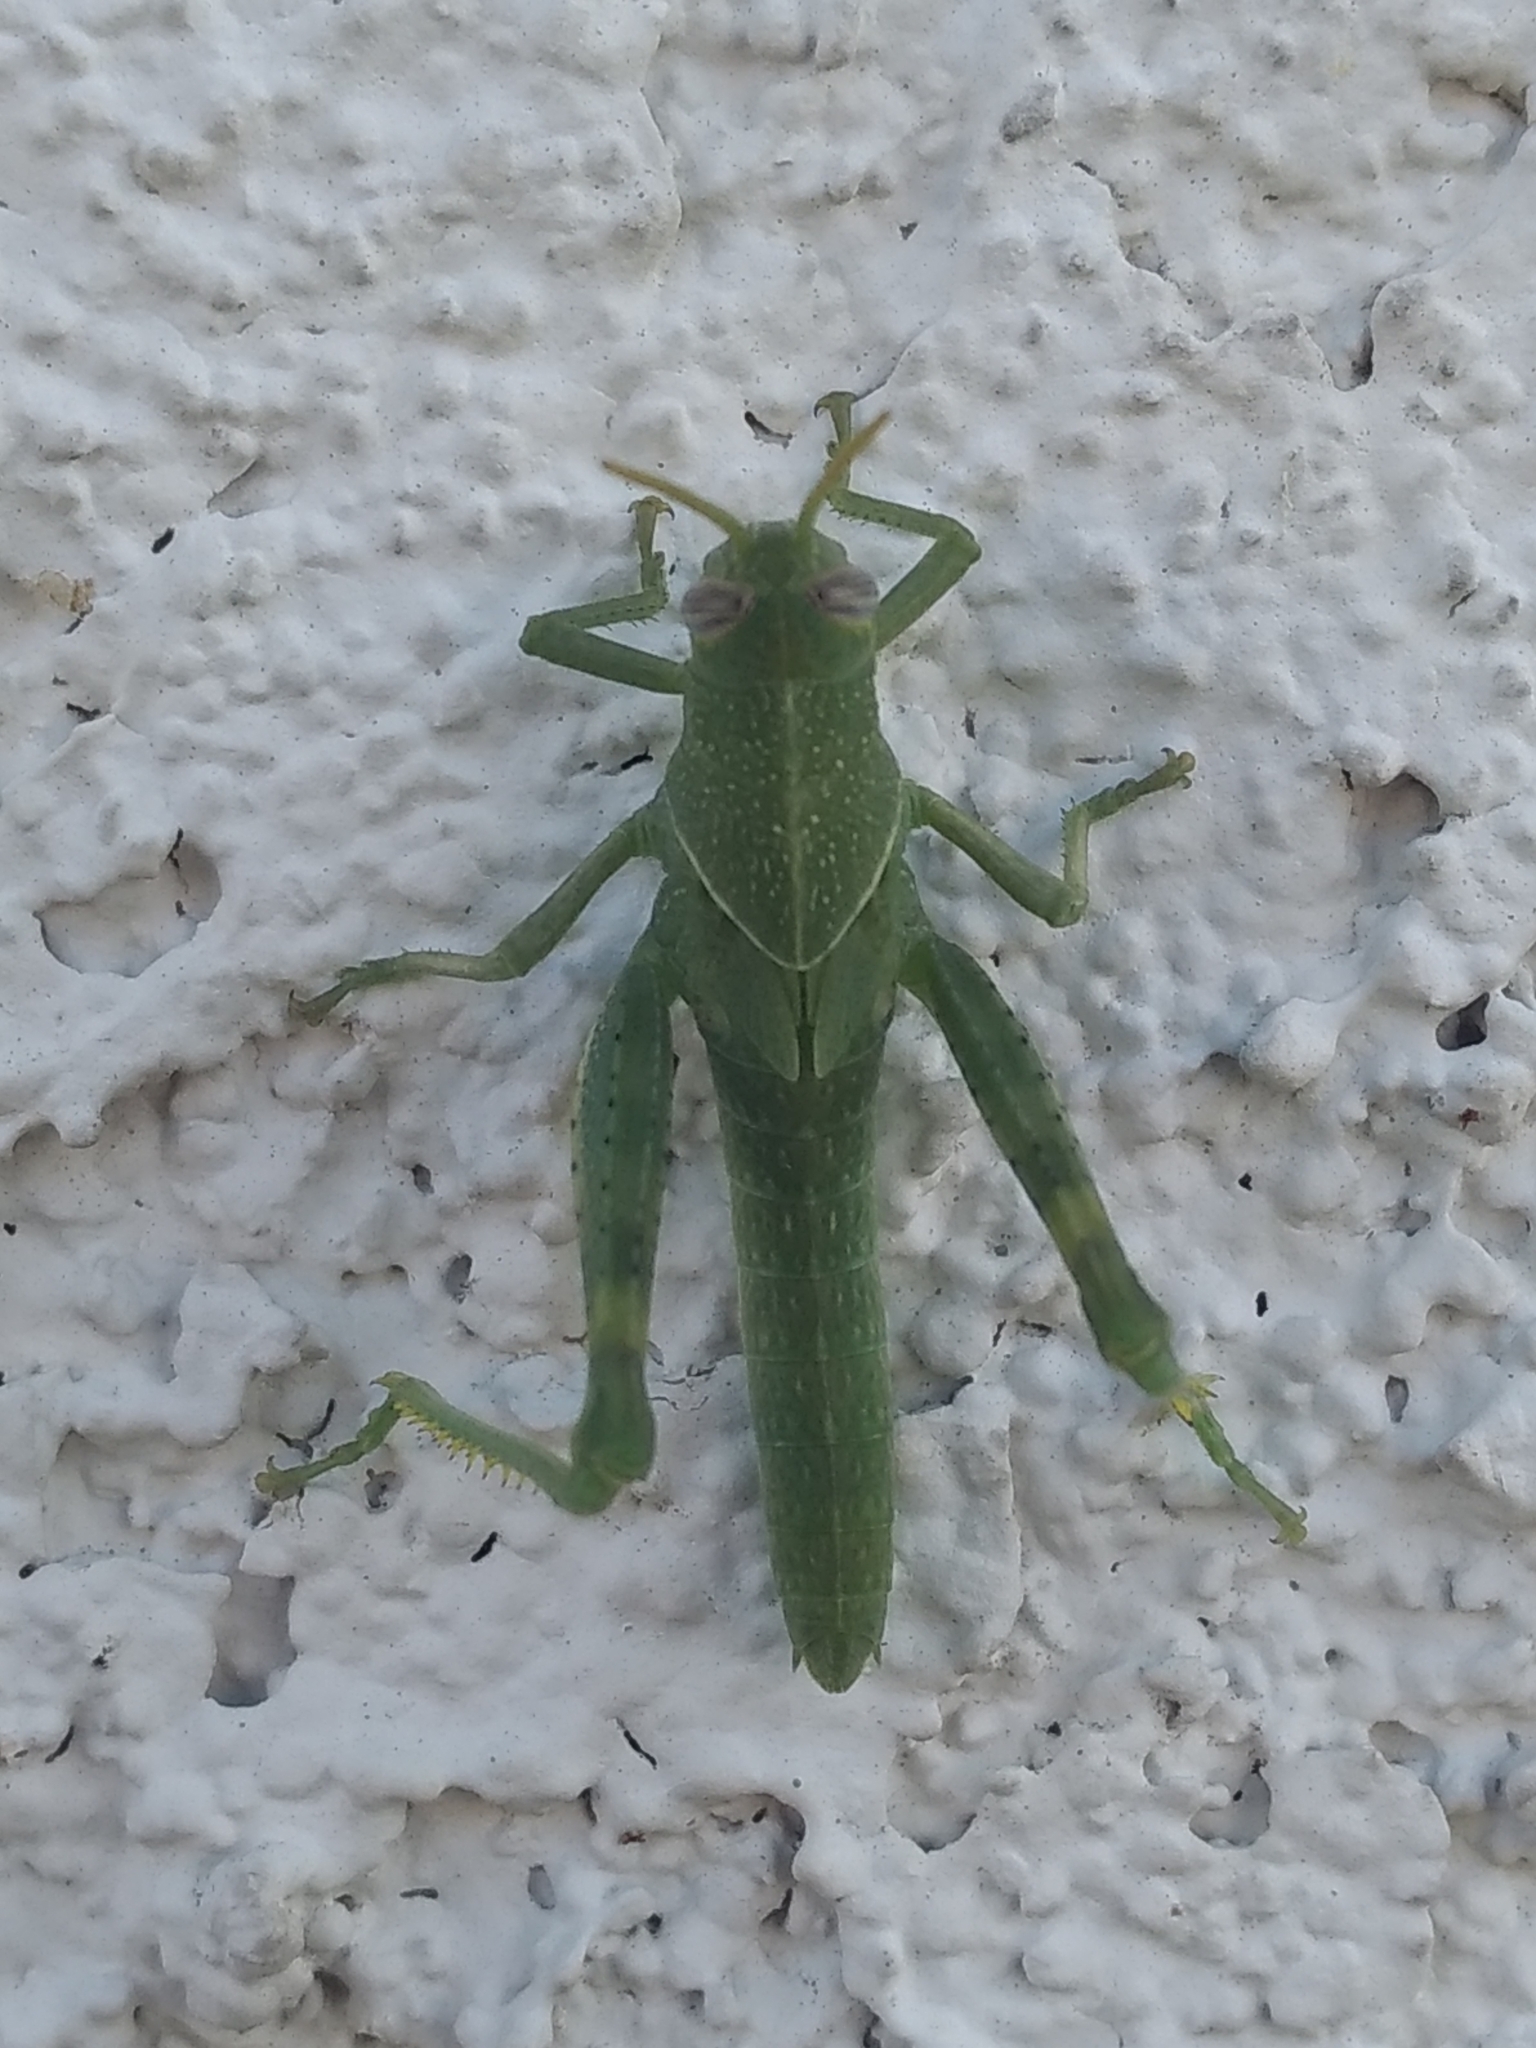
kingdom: Animalia
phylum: Arthropoda
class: Insecta
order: Orthoptera
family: Acrididae
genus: Schistocerca
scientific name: Schistocerca nitens
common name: Vagrant grasshopper
